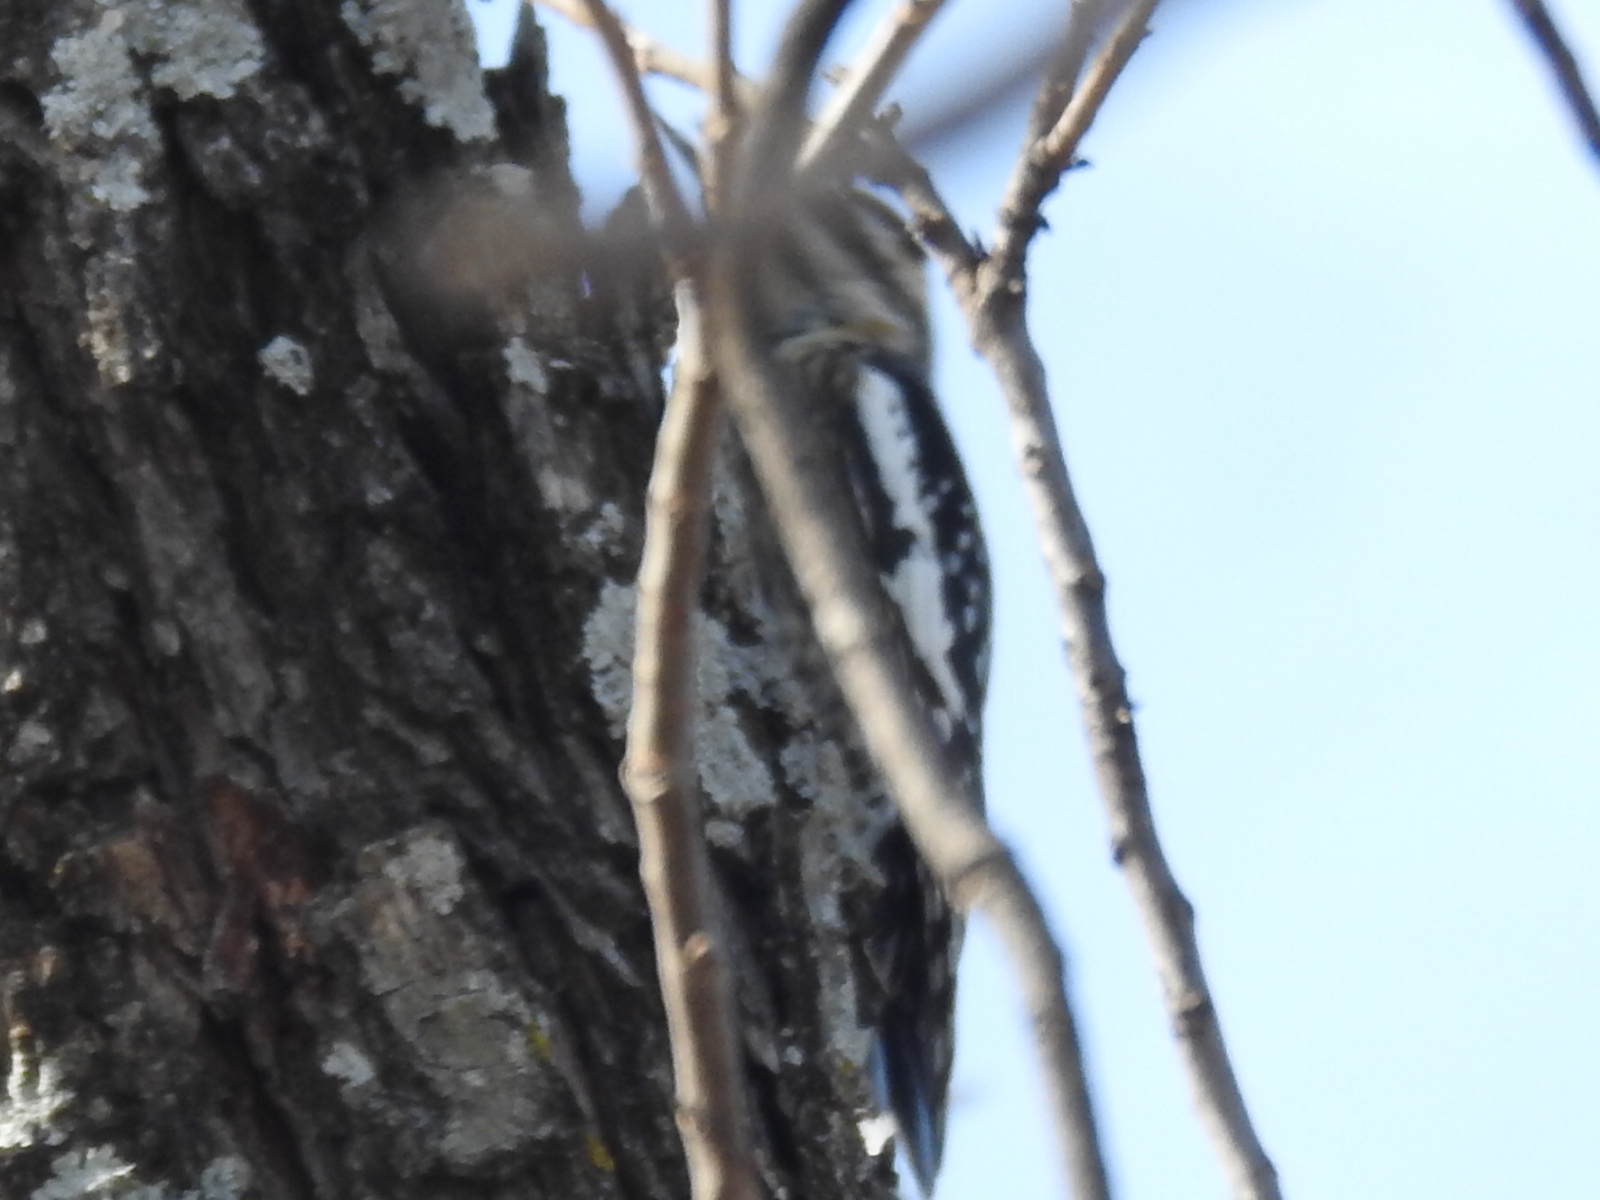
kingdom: Animalia
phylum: Chordata
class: Aves
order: Piciformes
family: Picidae
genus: Sphyrapicus
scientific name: Sphyrapicus varius
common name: Yellow-bellied sapsucker
